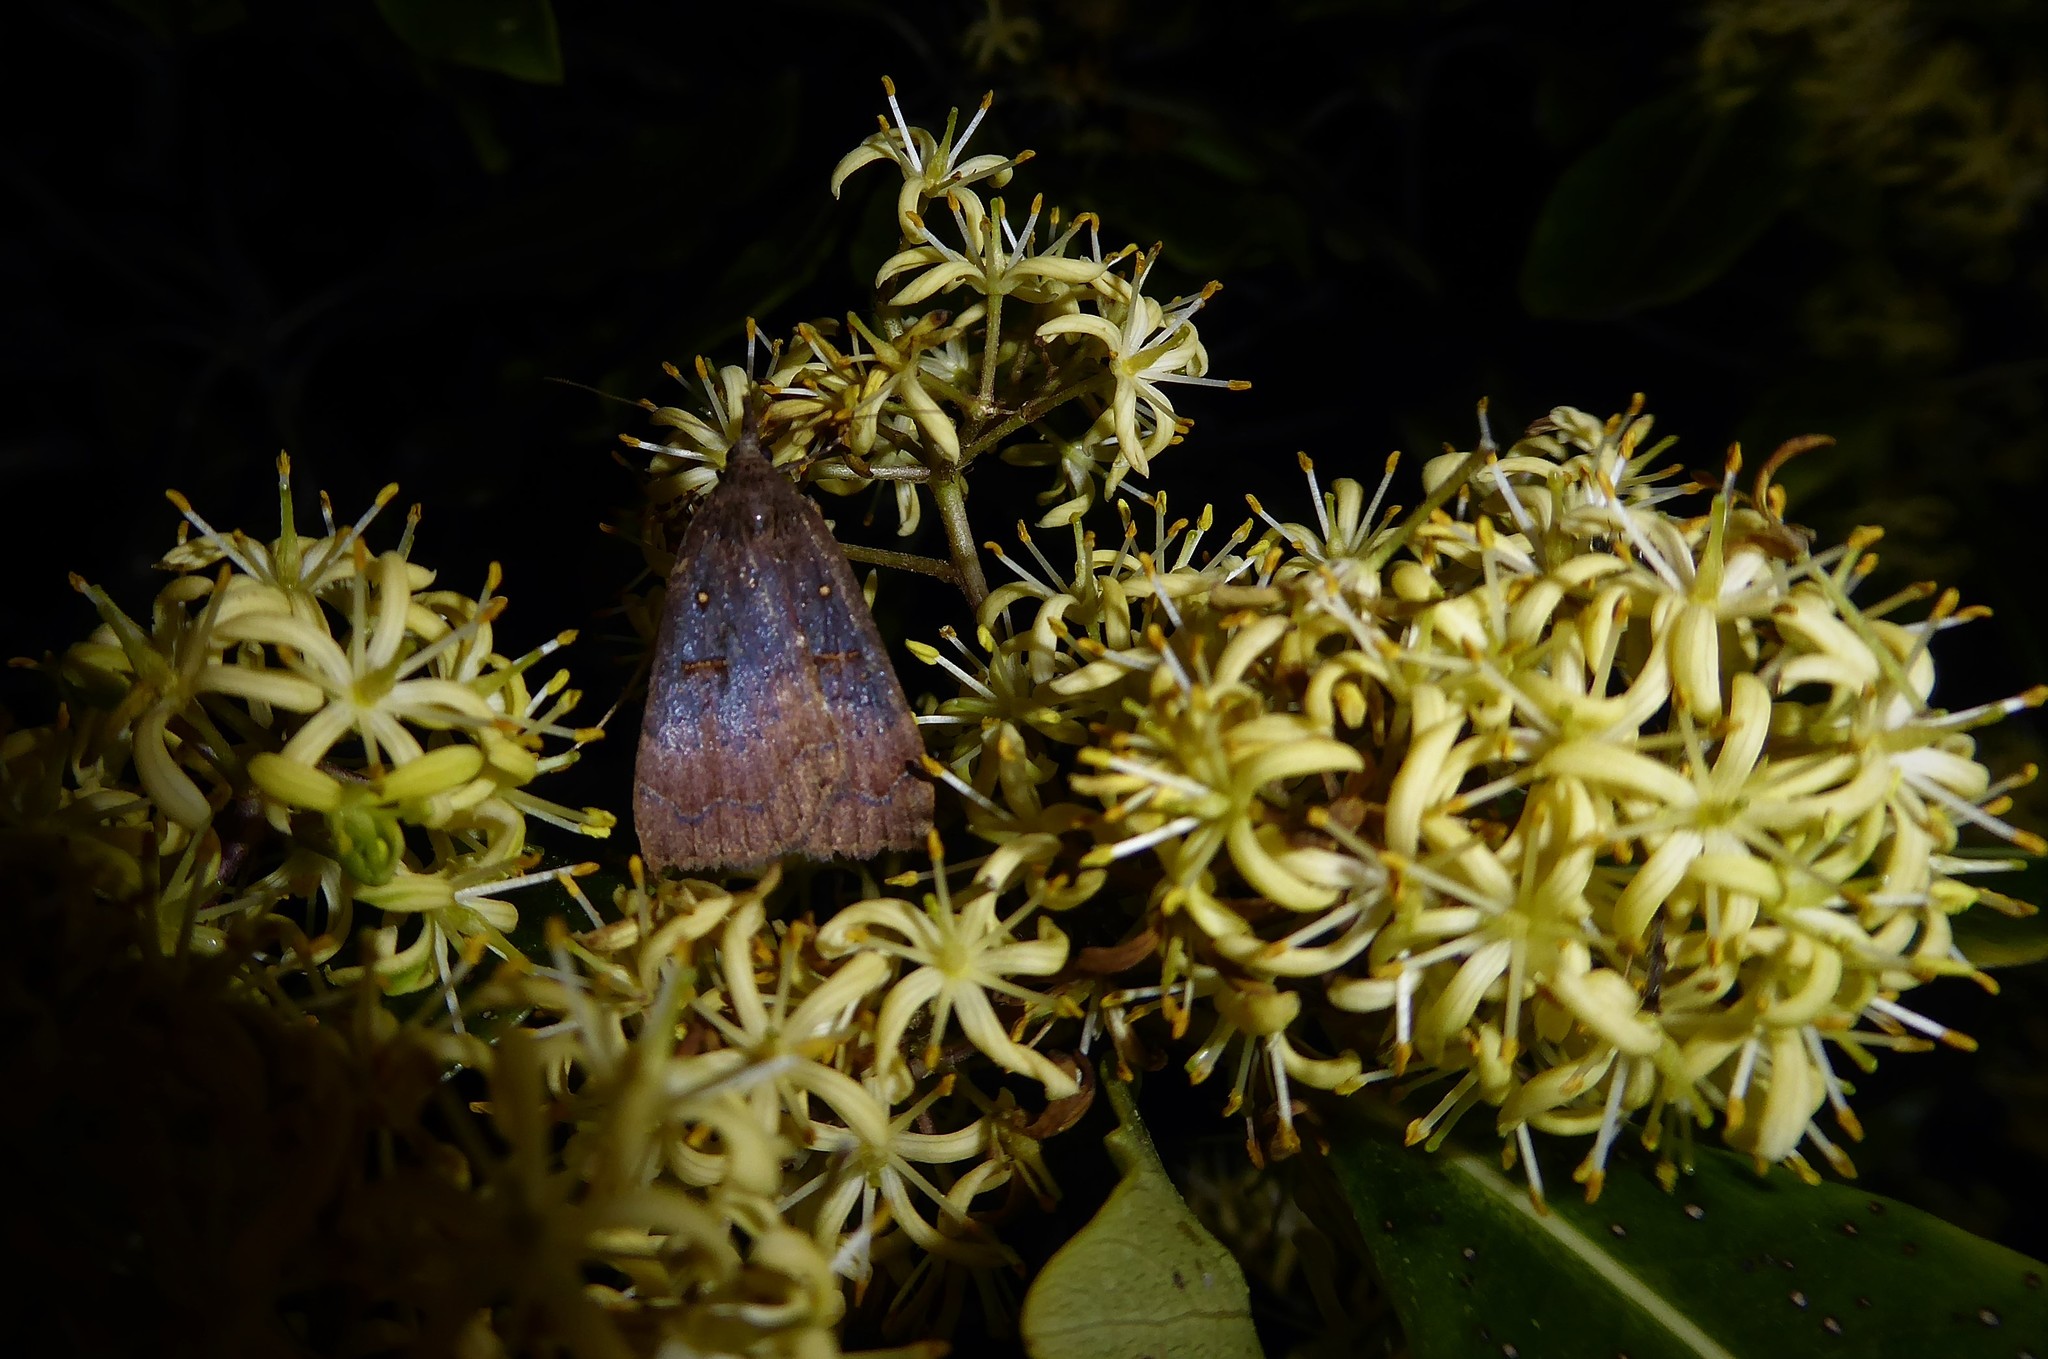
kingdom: Animalia
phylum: Arthropoda
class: Insecta
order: Lepidoptera
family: Erebidae
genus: Rhapsa
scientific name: Rhapsa scotosialis
